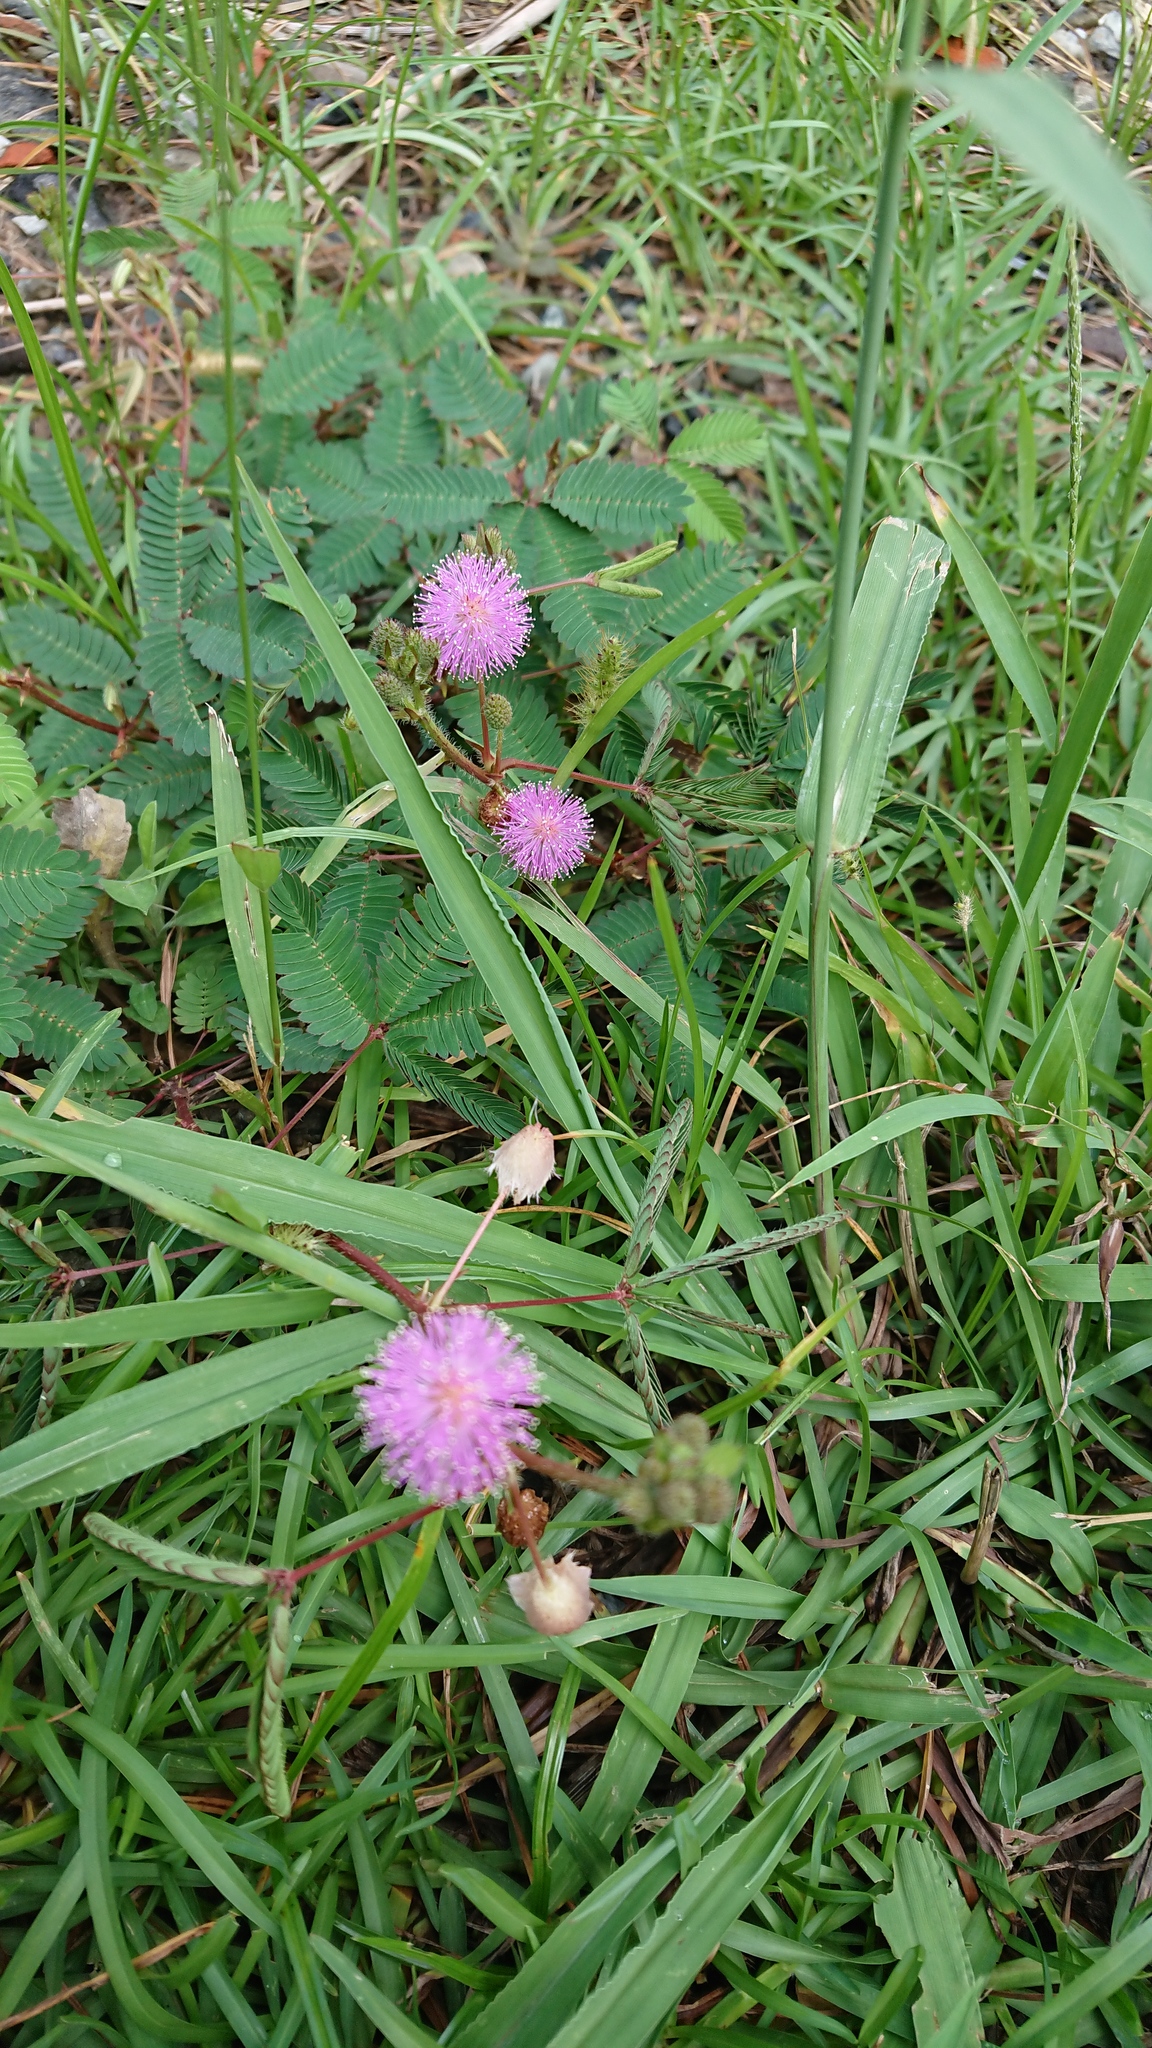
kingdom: Plantae
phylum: Tracheophyta
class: Magnoliopsida
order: Fabales
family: Fabaceae
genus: Mimosa
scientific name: Mimosa pudica
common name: Sensitive plant
